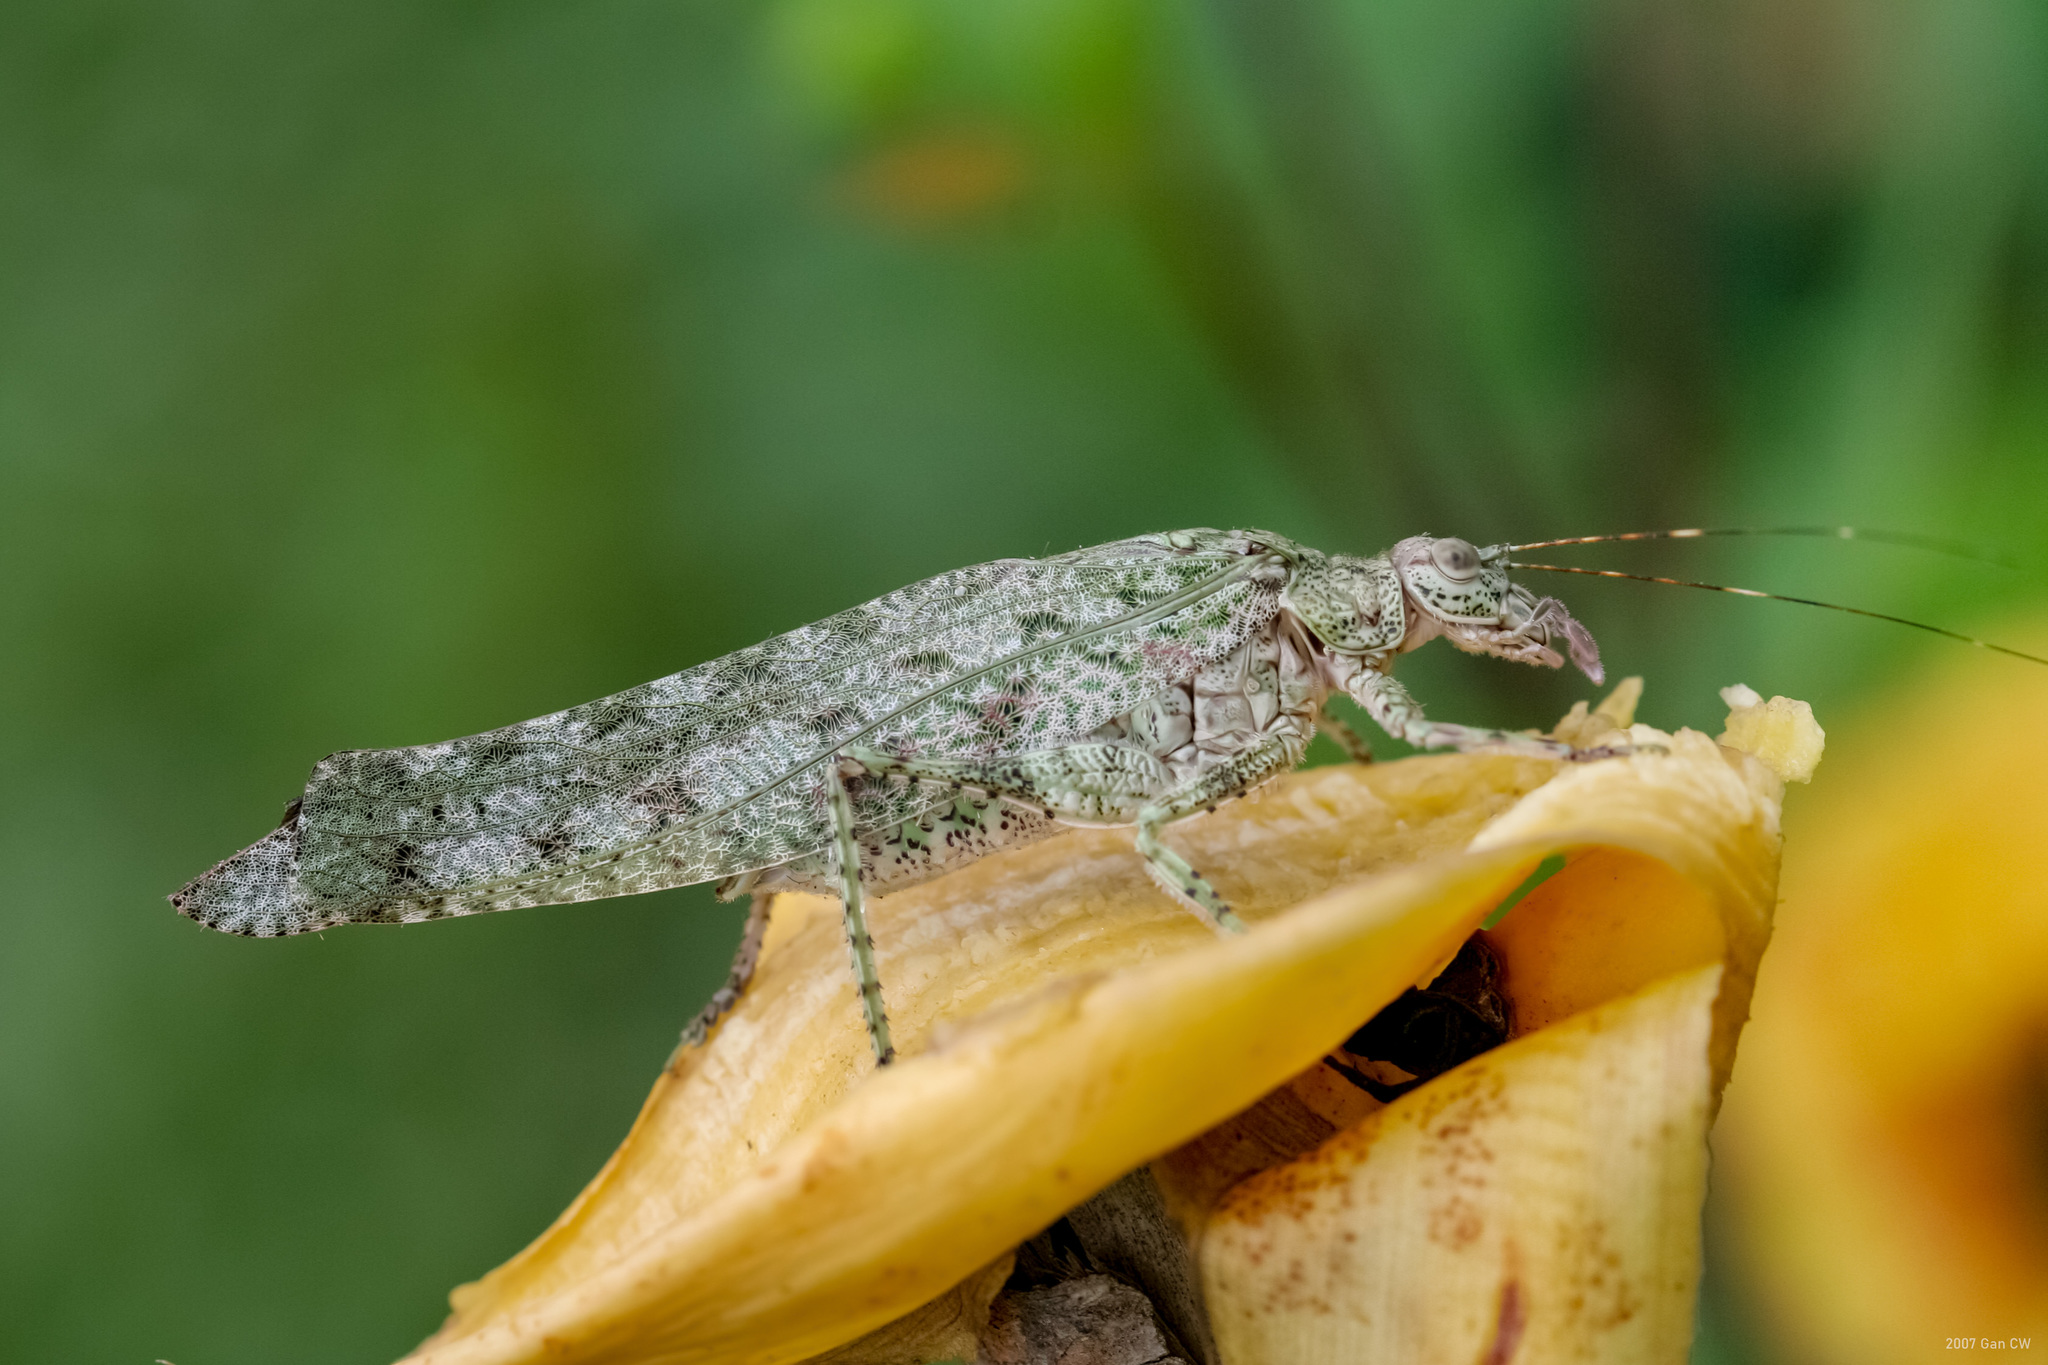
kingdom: Animalia
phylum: Arthropoda
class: Insecta
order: Orthoptera
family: Tettigoniidae
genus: Zulpha
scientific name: Zulpha perlaria
